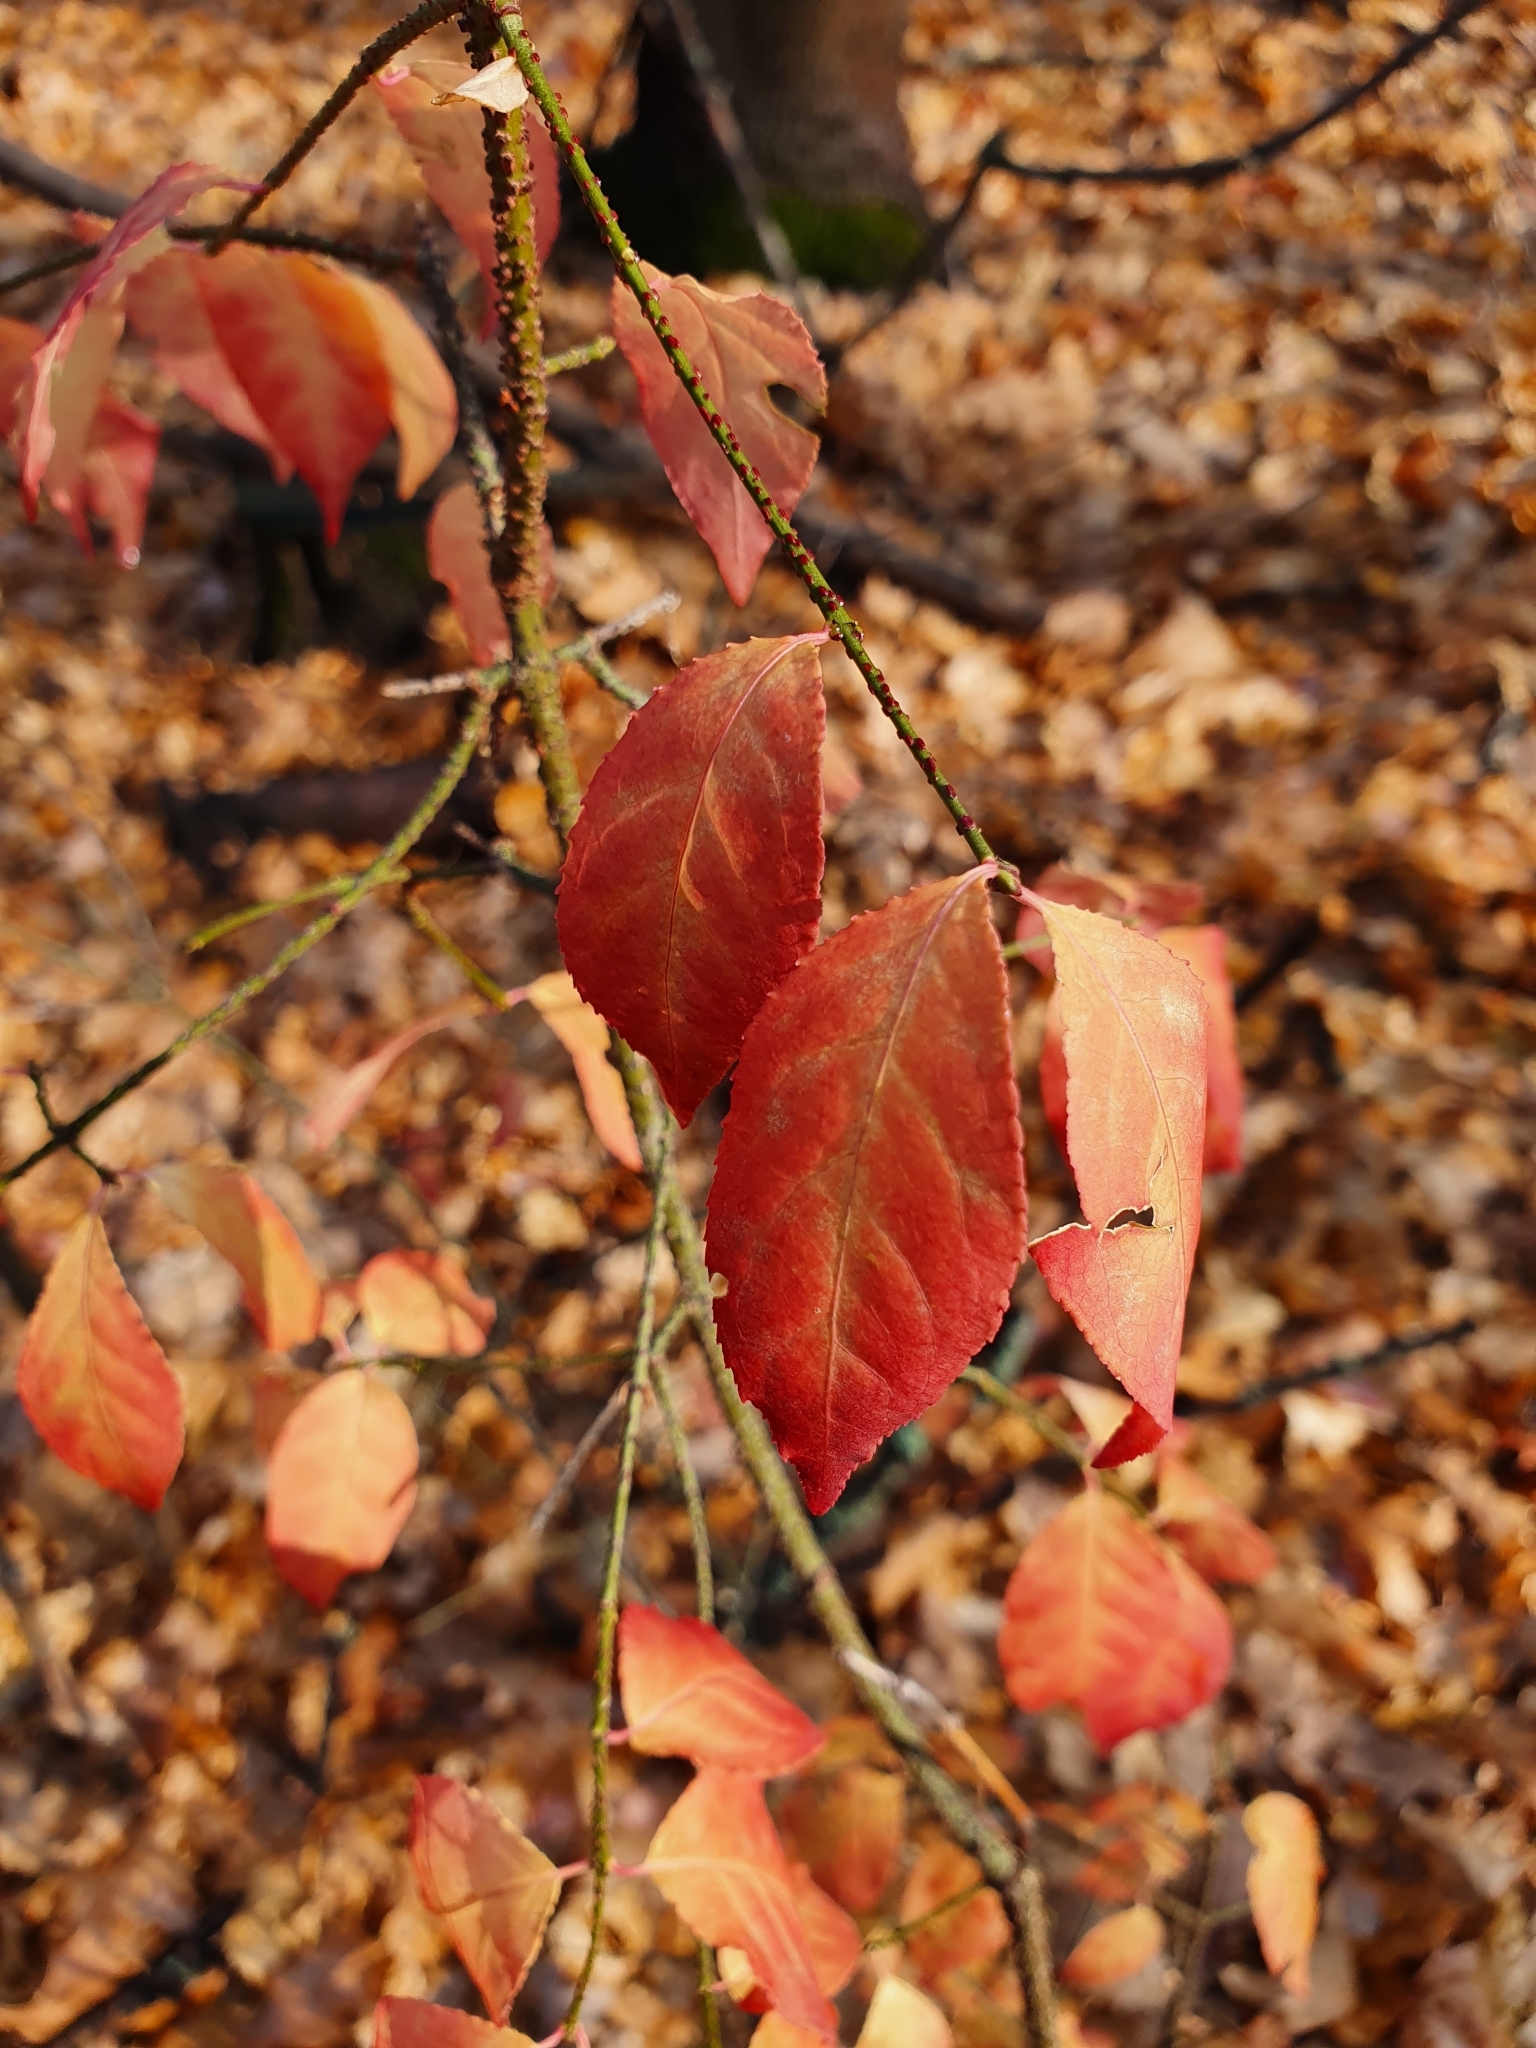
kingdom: Plantae
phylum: Tracheophyta
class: Magnoliopsida
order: Celastrales
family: Celastraceae
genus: Euonymus
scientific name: Euonymus verrucosus
